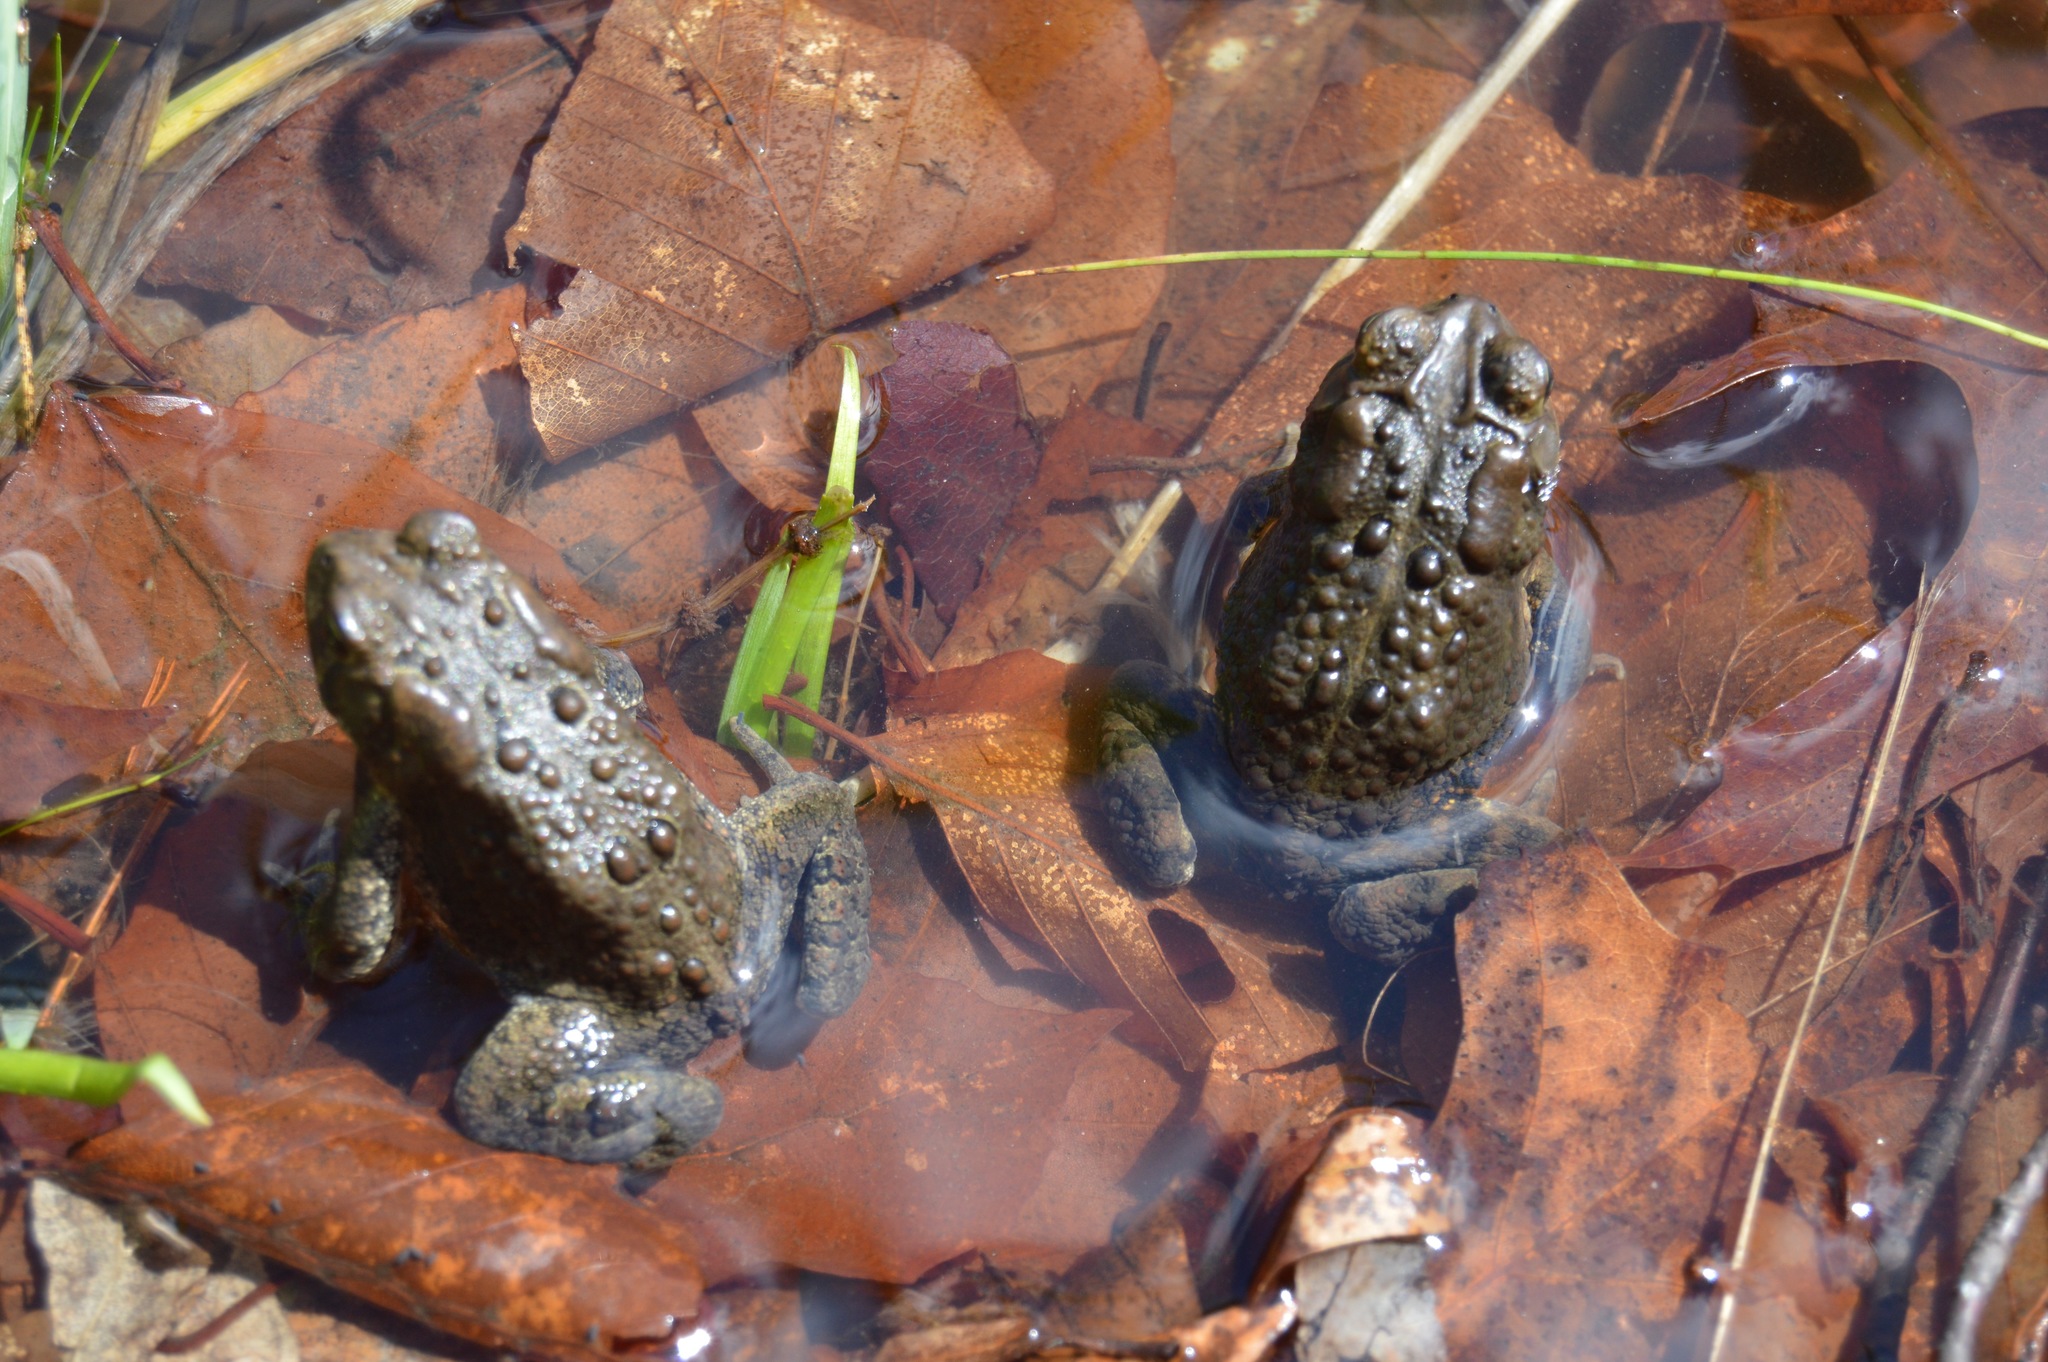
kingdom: Animalia
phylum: Chordata
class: Amphibia
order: Anura
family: Bufonidae
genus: Anaxyrus
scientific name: Anaxyrus americanus
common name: American toad
